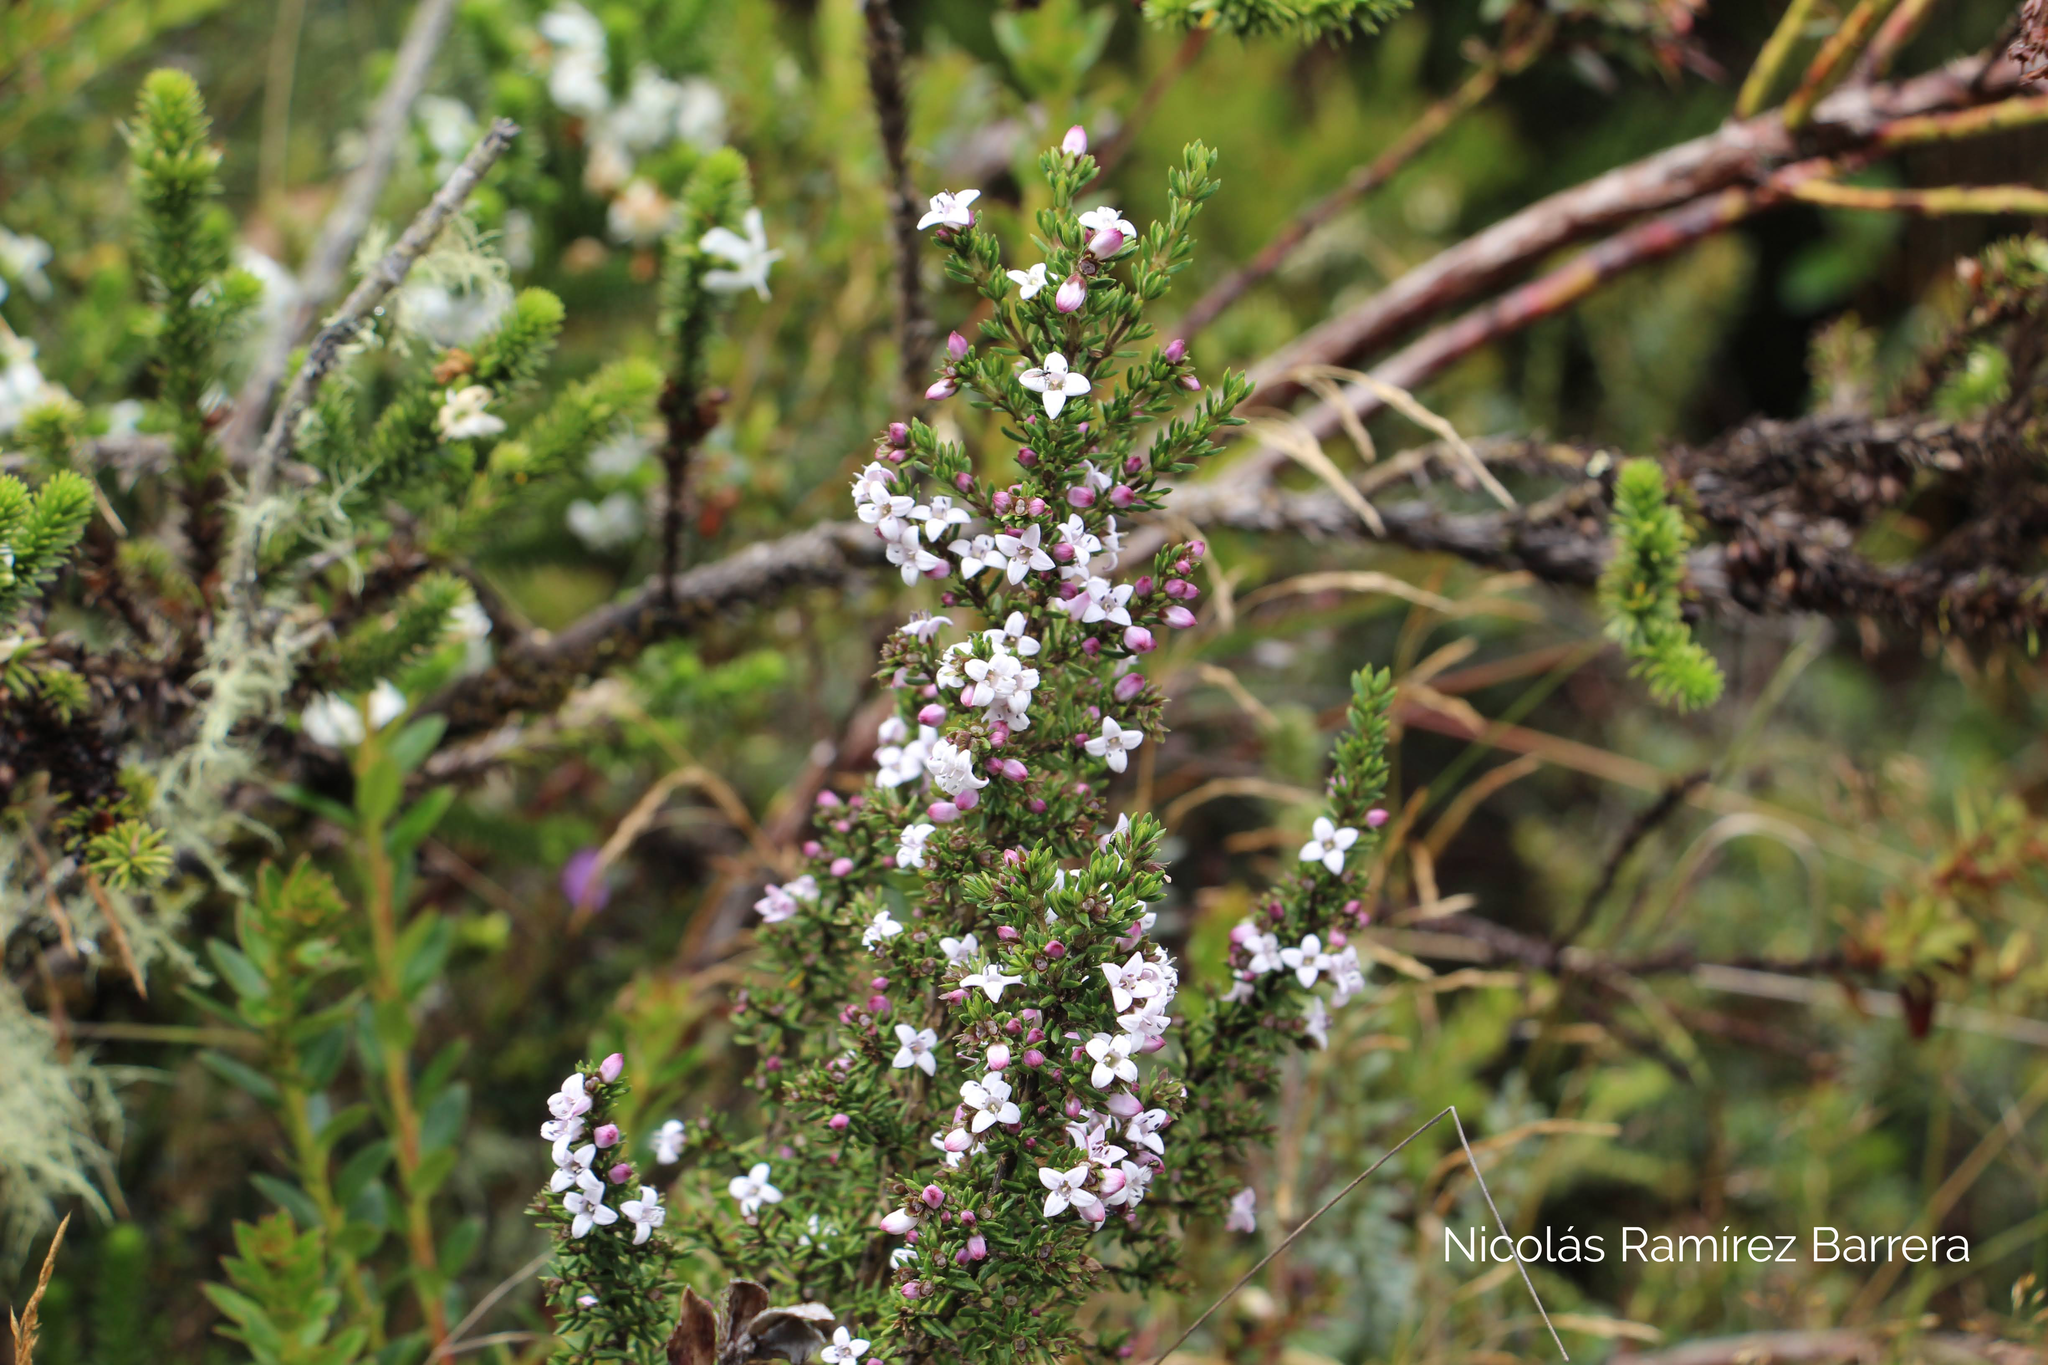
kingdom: Plantae
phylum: Tracheophyta
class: Magnoliopsida
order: Gentianales
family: Rubiaceae
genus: Arcytophyllum
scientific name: Arcytophyllum nitidum
